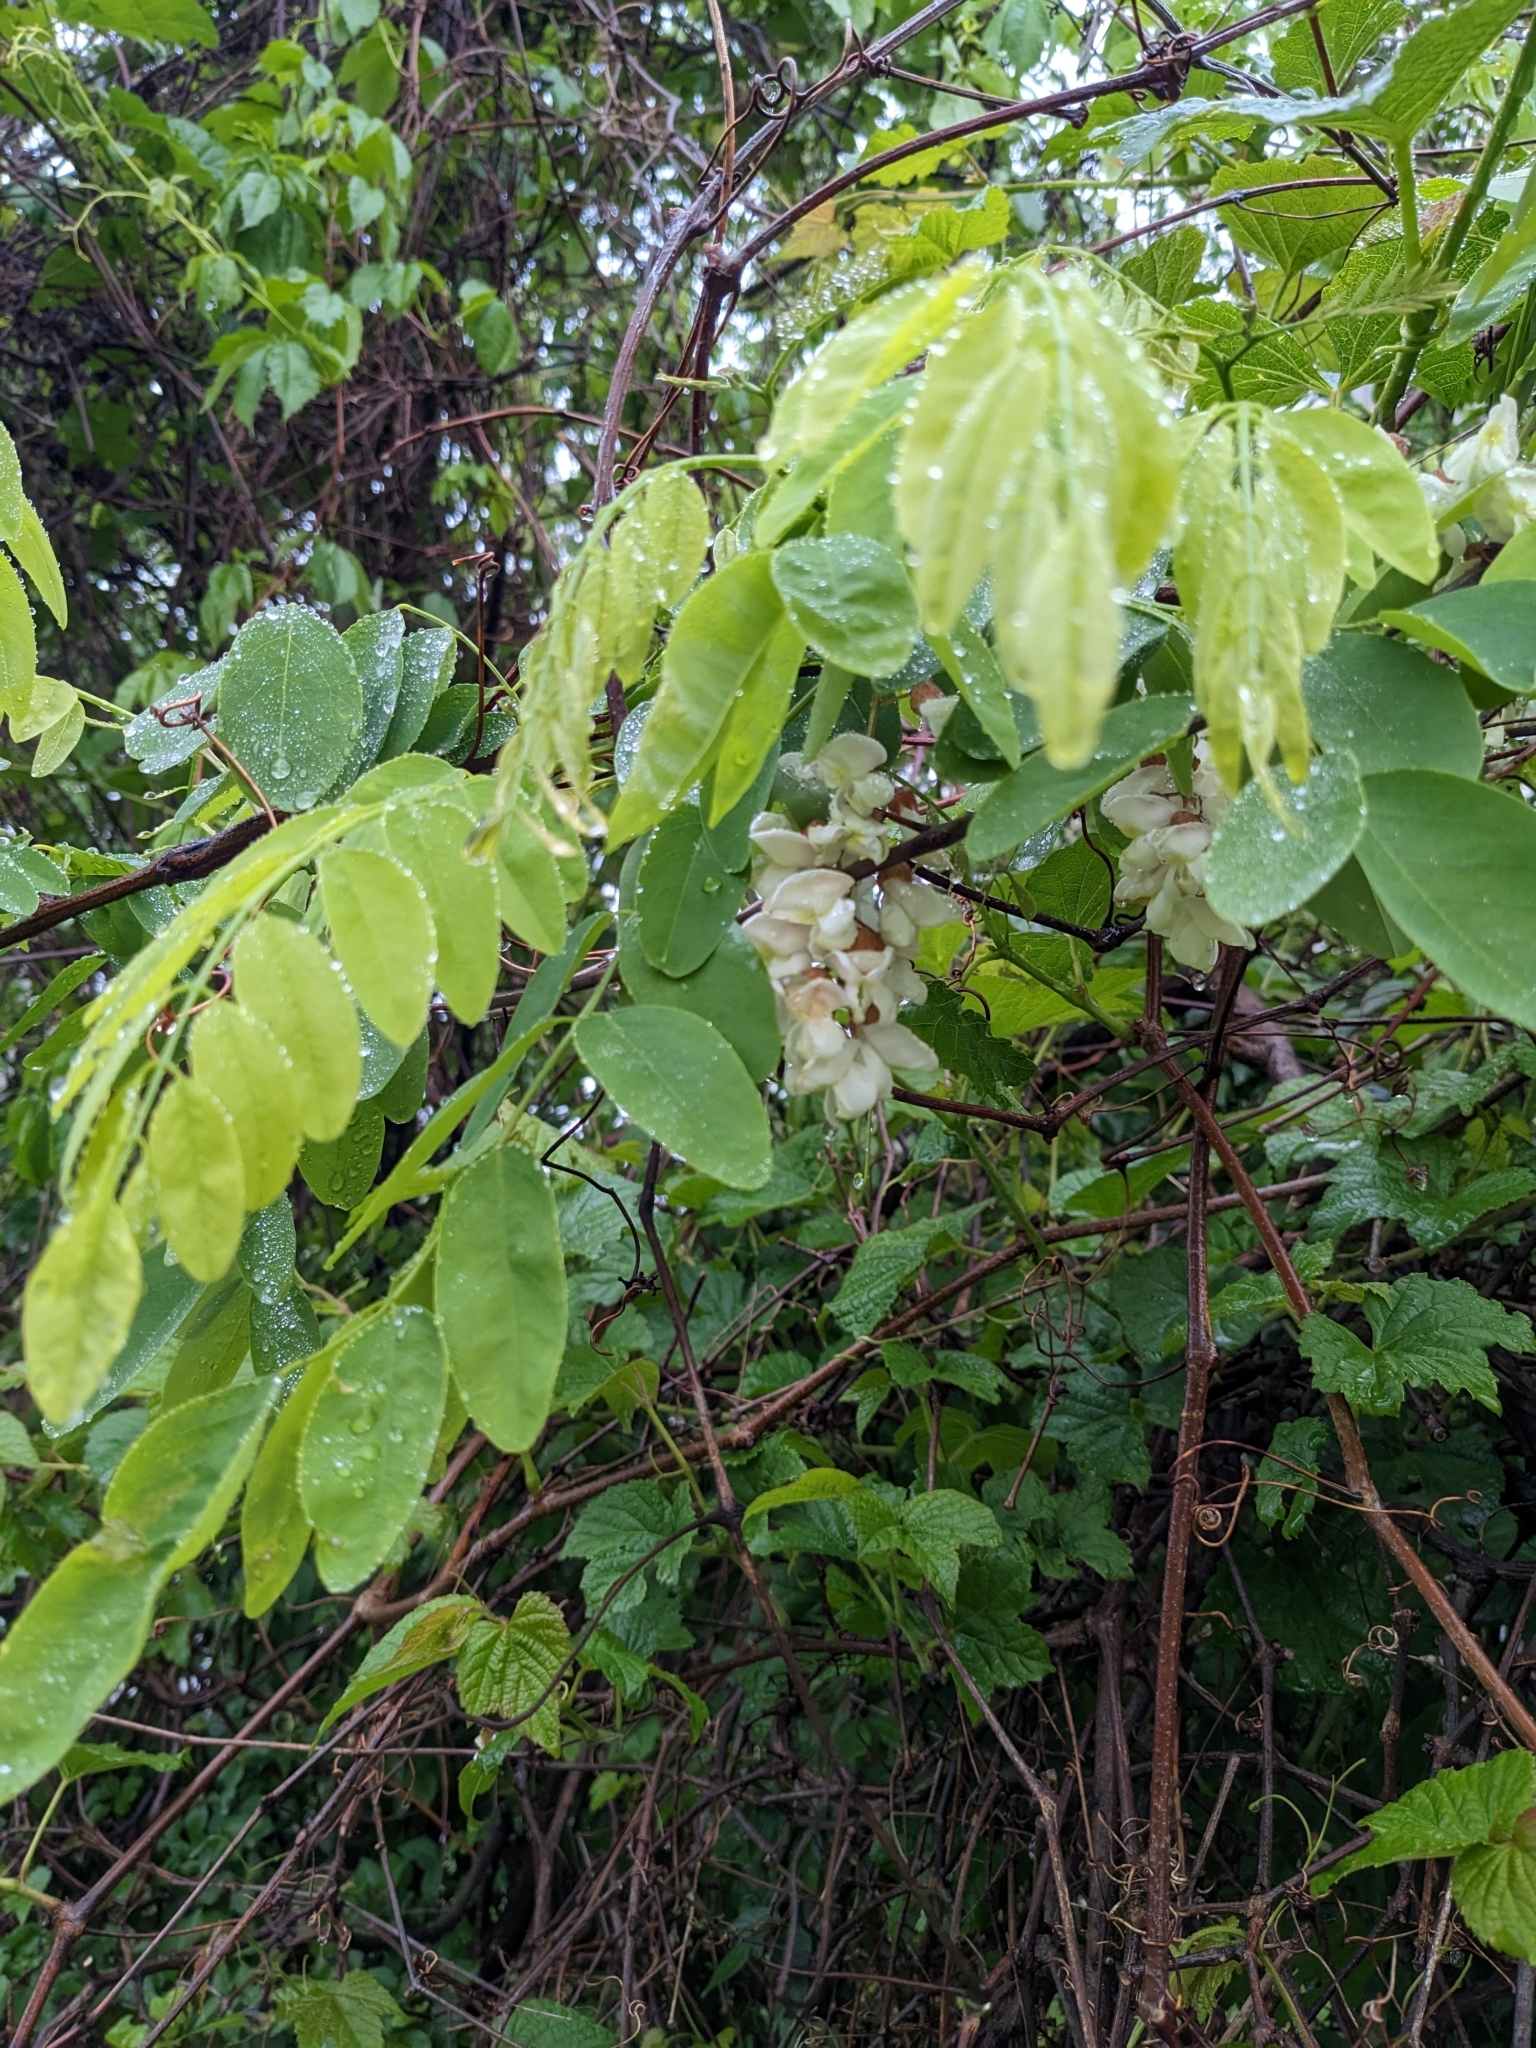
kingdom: Plantae
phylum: Tracheophyta
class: Magnoliopsida
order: Fabales
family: Fabaceae
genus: Robinia
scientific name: Robinia pseudoacacia
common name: Black locust
